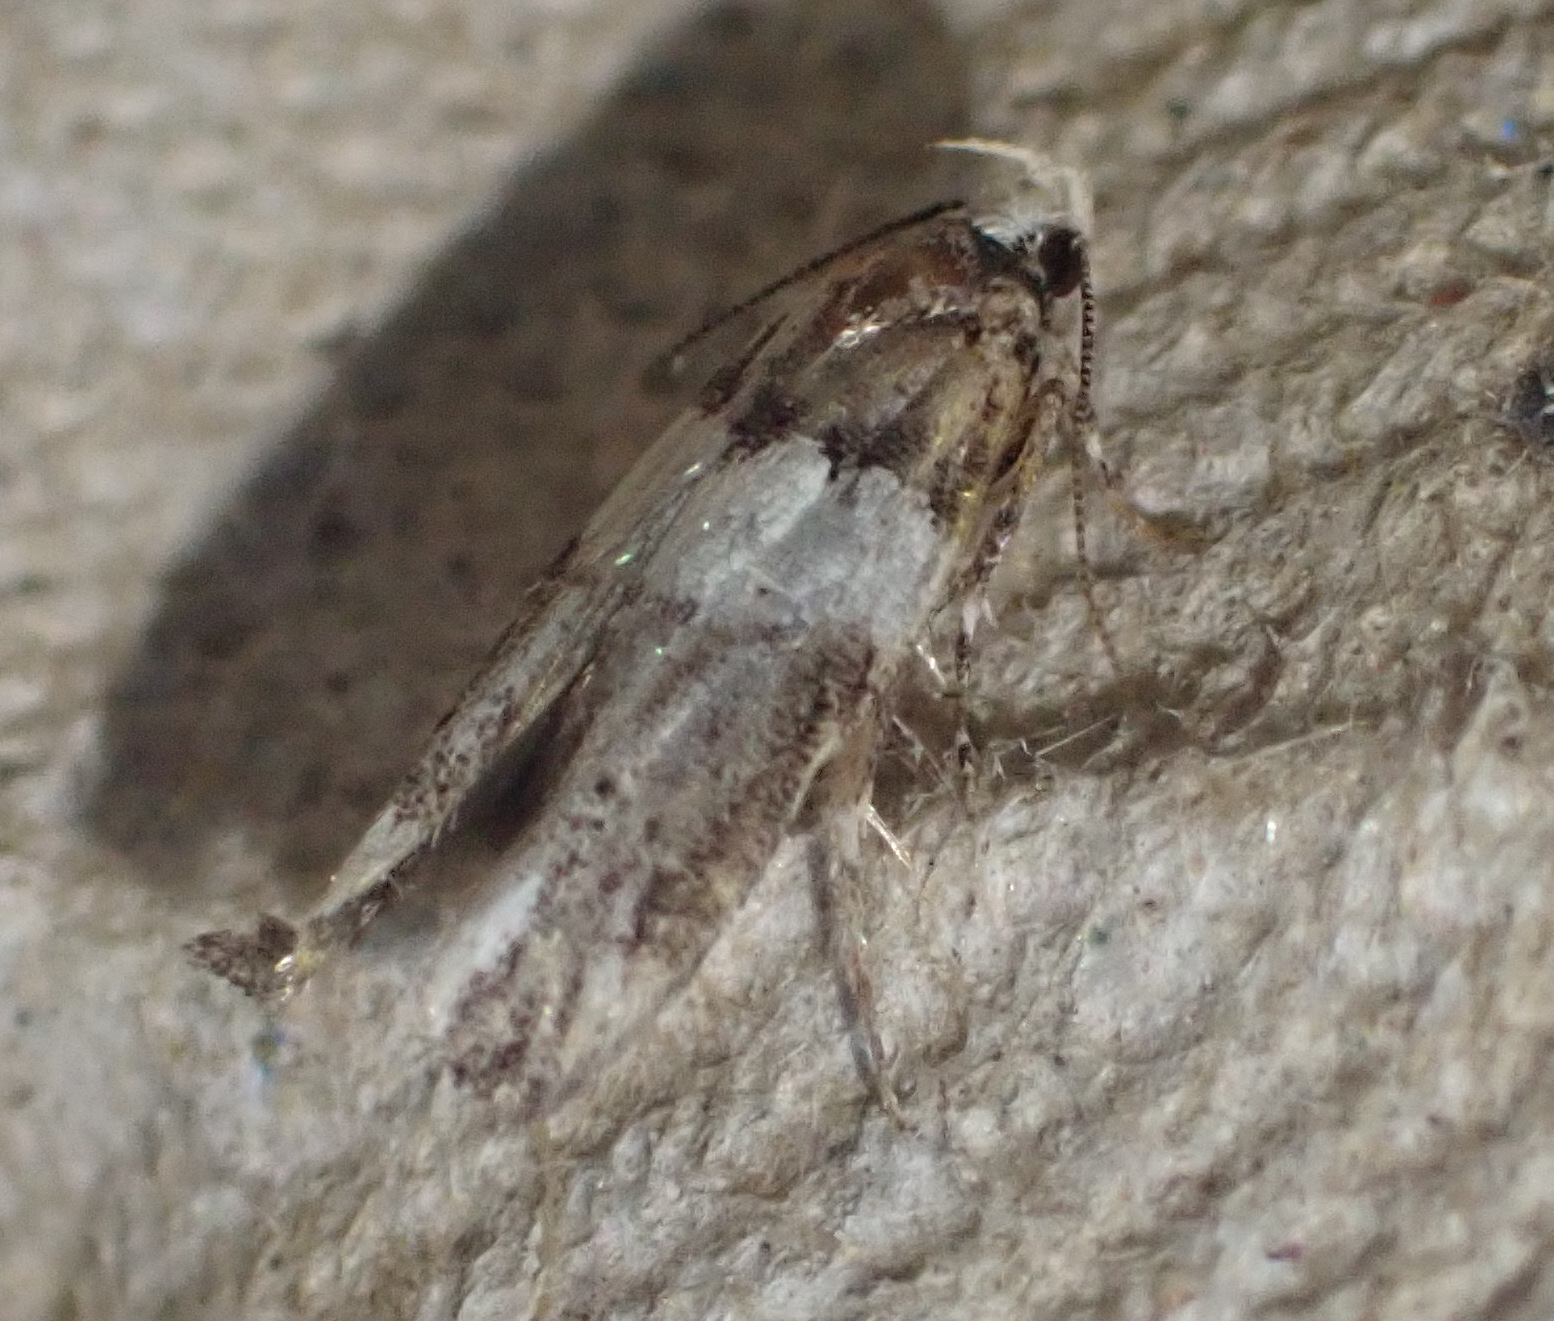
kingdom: Animalia
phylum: Arthropoda
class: Insecta
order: Lepidoptera
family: Gelechiidae
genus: Recurvaria
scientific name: Recurvaria leucatella
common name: White-barred groundling
